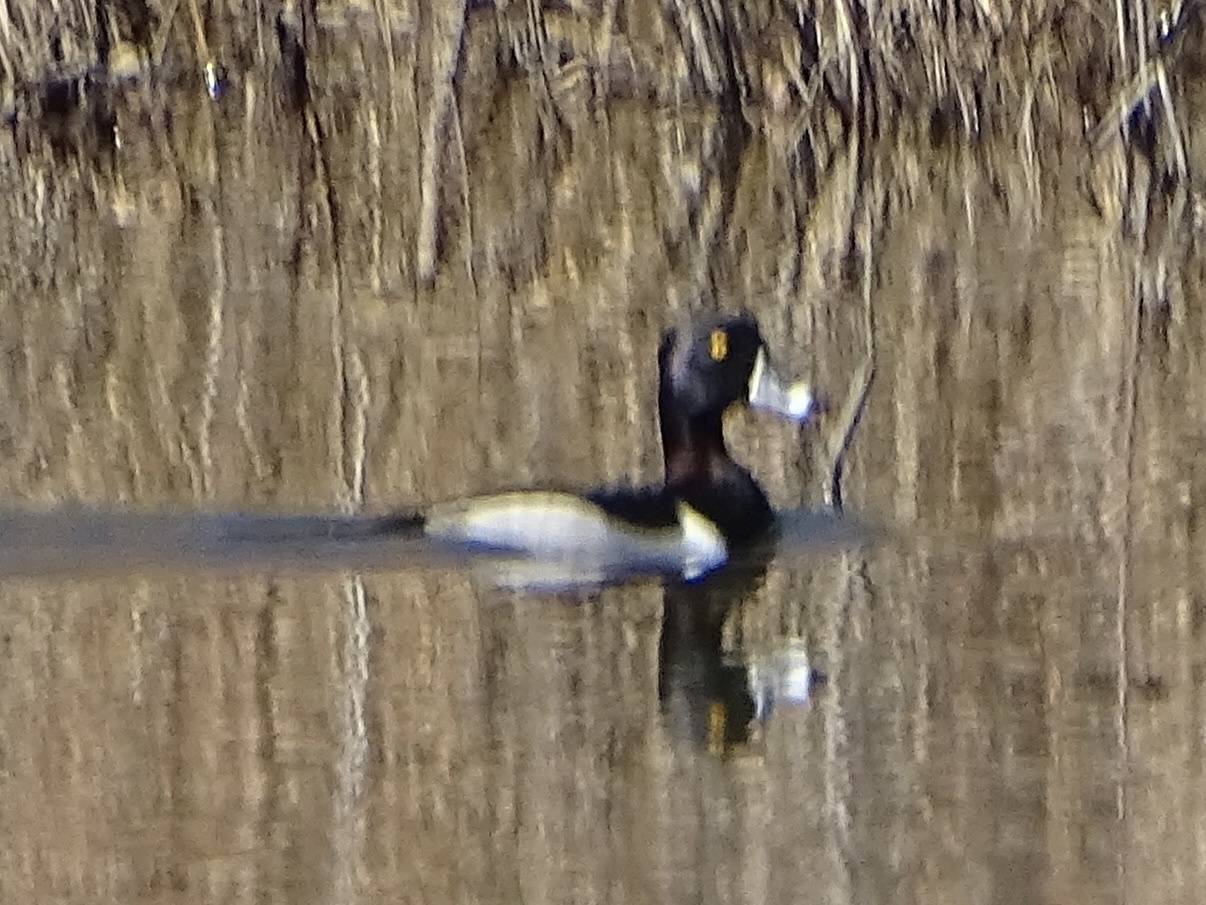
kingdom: Animalia
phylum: Chordata
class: Aves
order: Anseriformes
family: Anatidae
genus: Aythya
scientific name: Aythya collaris
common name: Ring-necked duck
